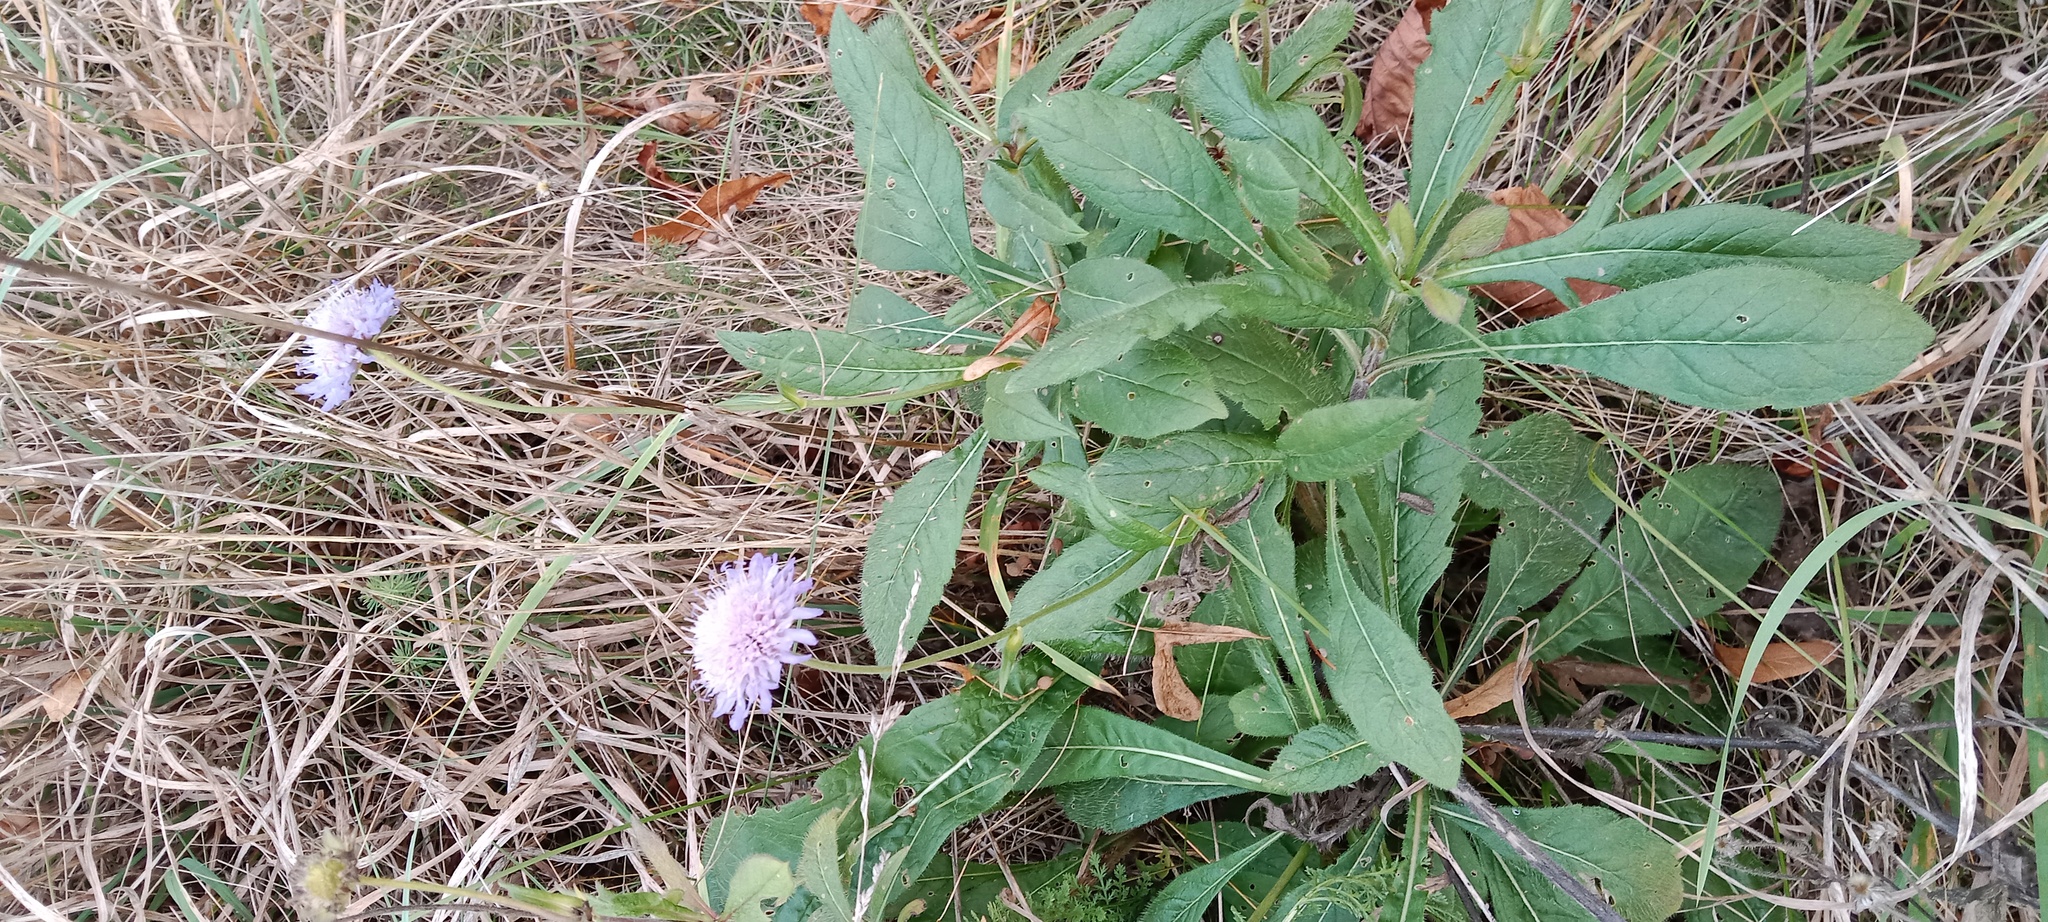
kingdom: Plantae
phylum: Tracheophyta
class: Magnoliopsida
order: Dipsacales
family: Caprifoliaceae
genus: Knautia
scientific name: Knautia arvensis
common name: Field scabiosa
